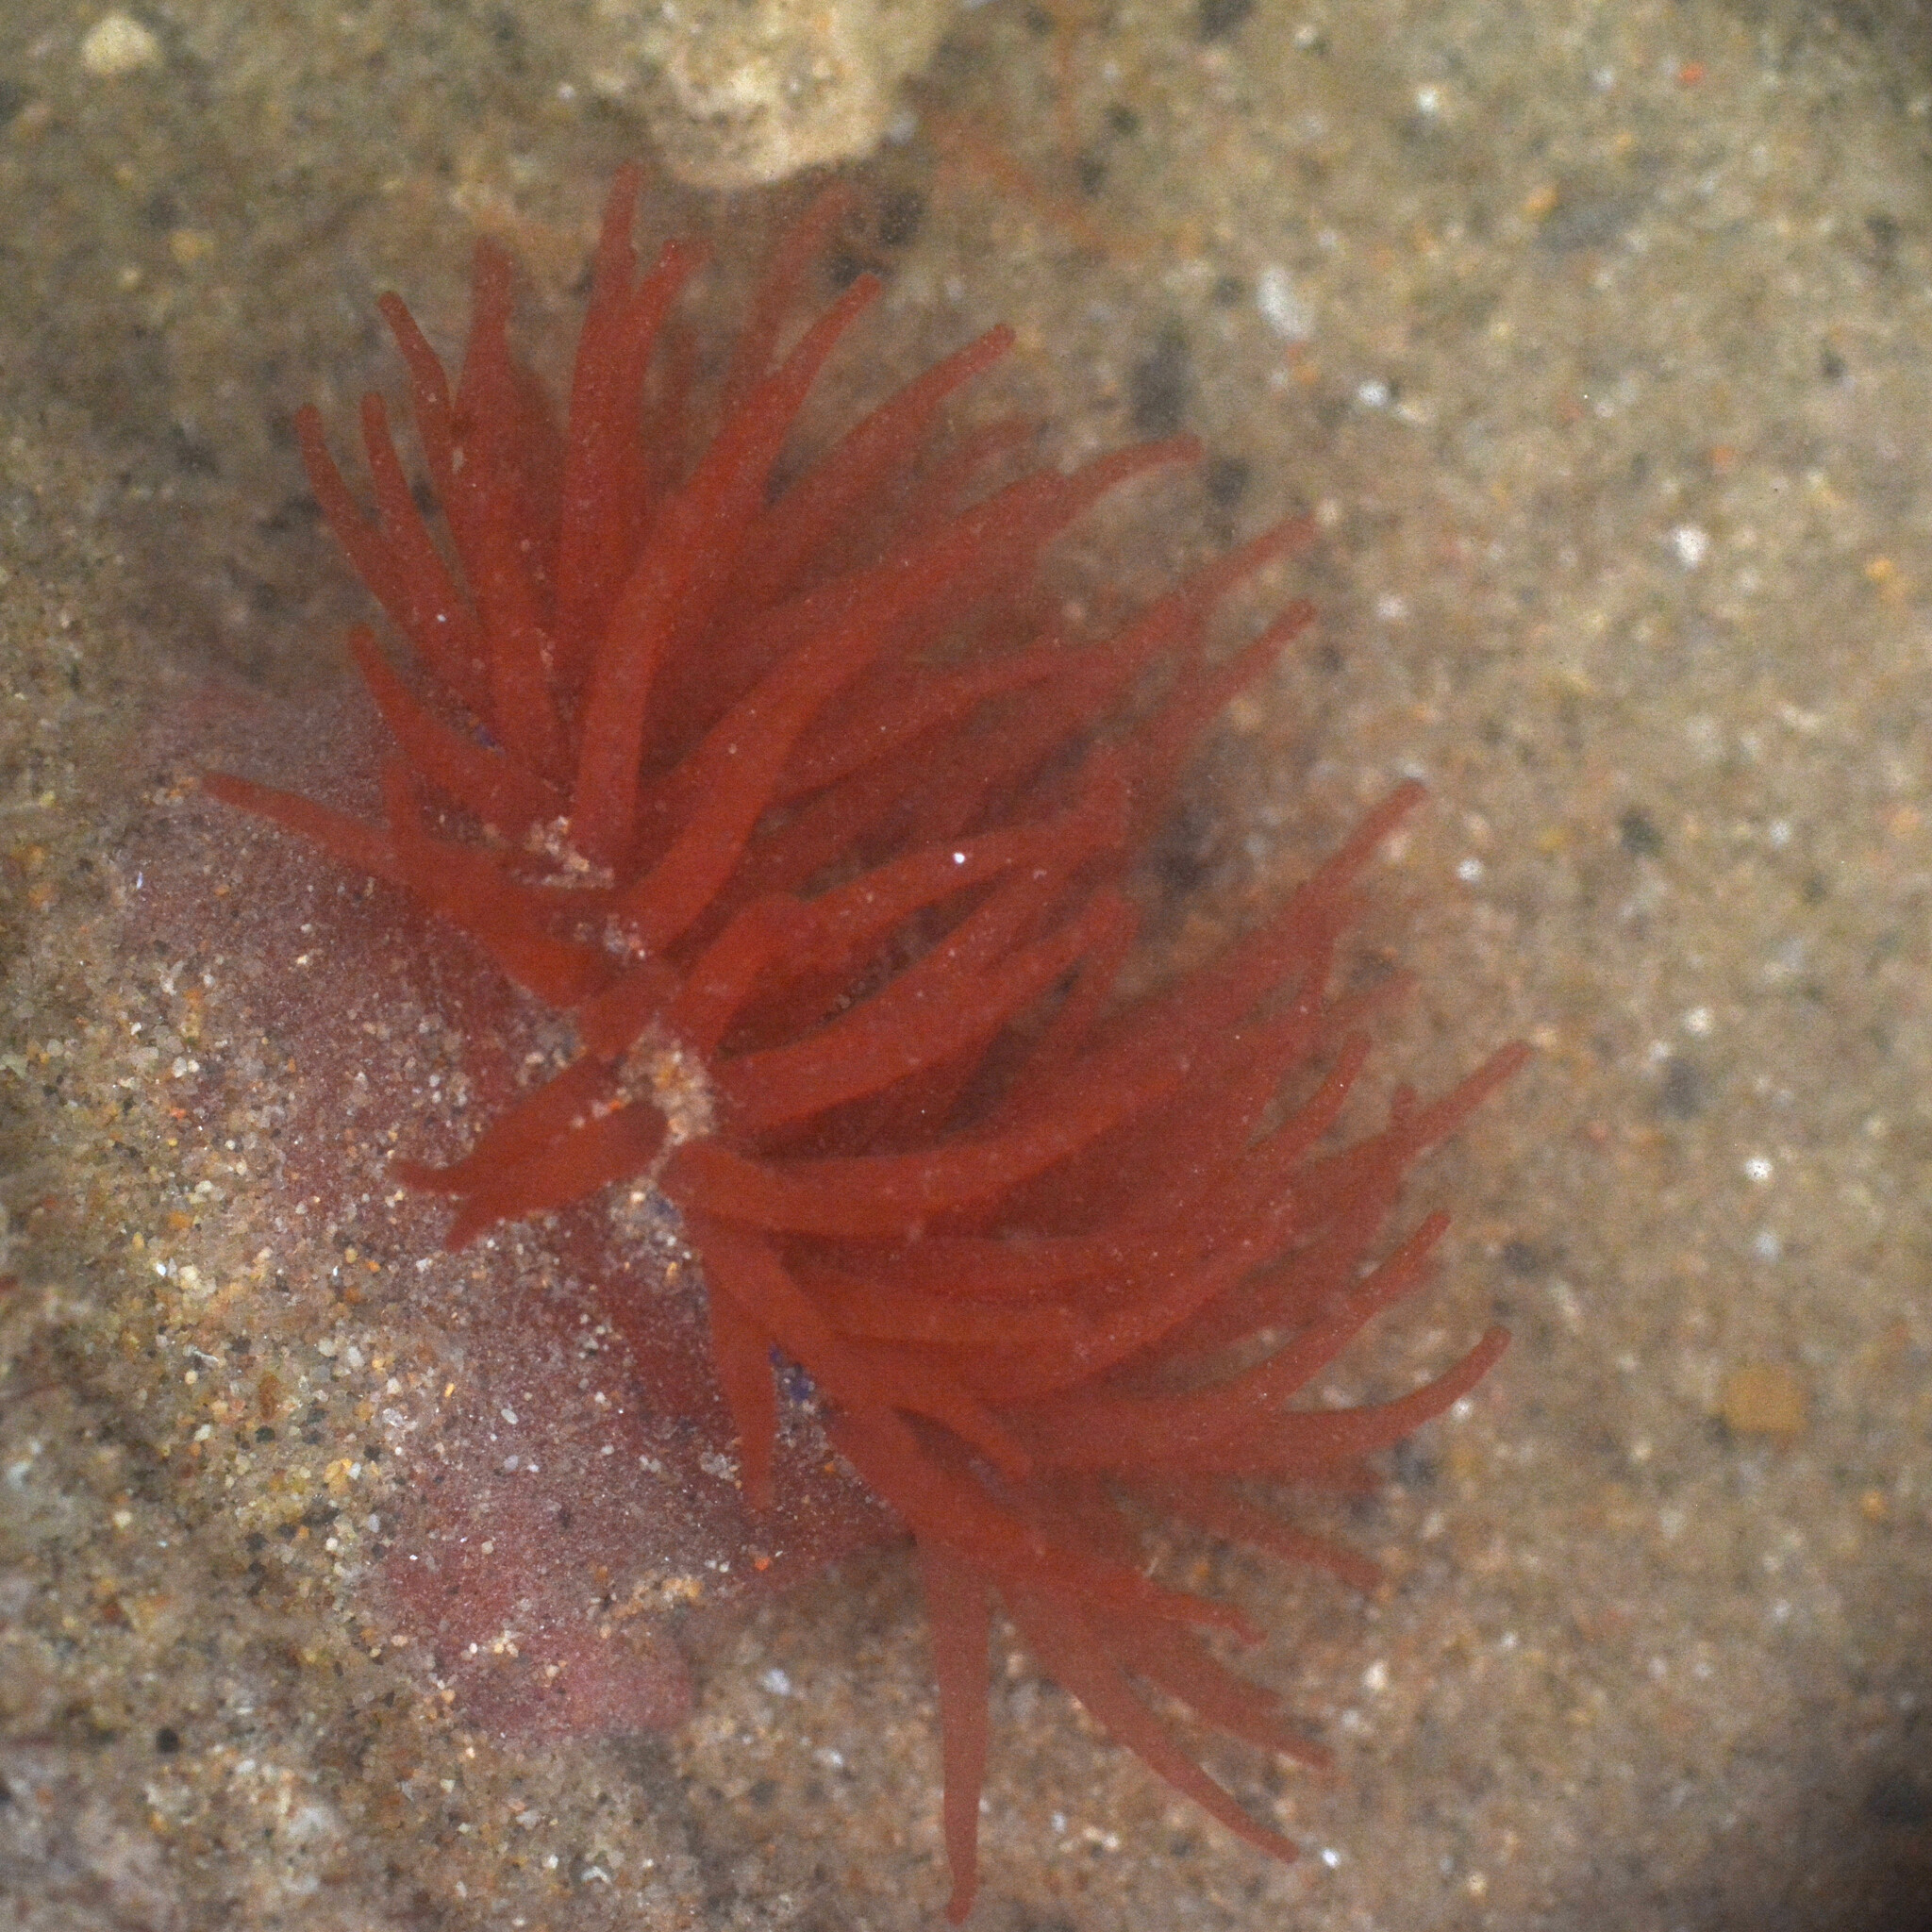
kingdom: Animalia
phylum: Cnidaria
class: Anthozoa
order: Actiniaria
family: Actiniidae
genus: Actinia
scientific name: Actinia equina
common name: Beadlet anemone
